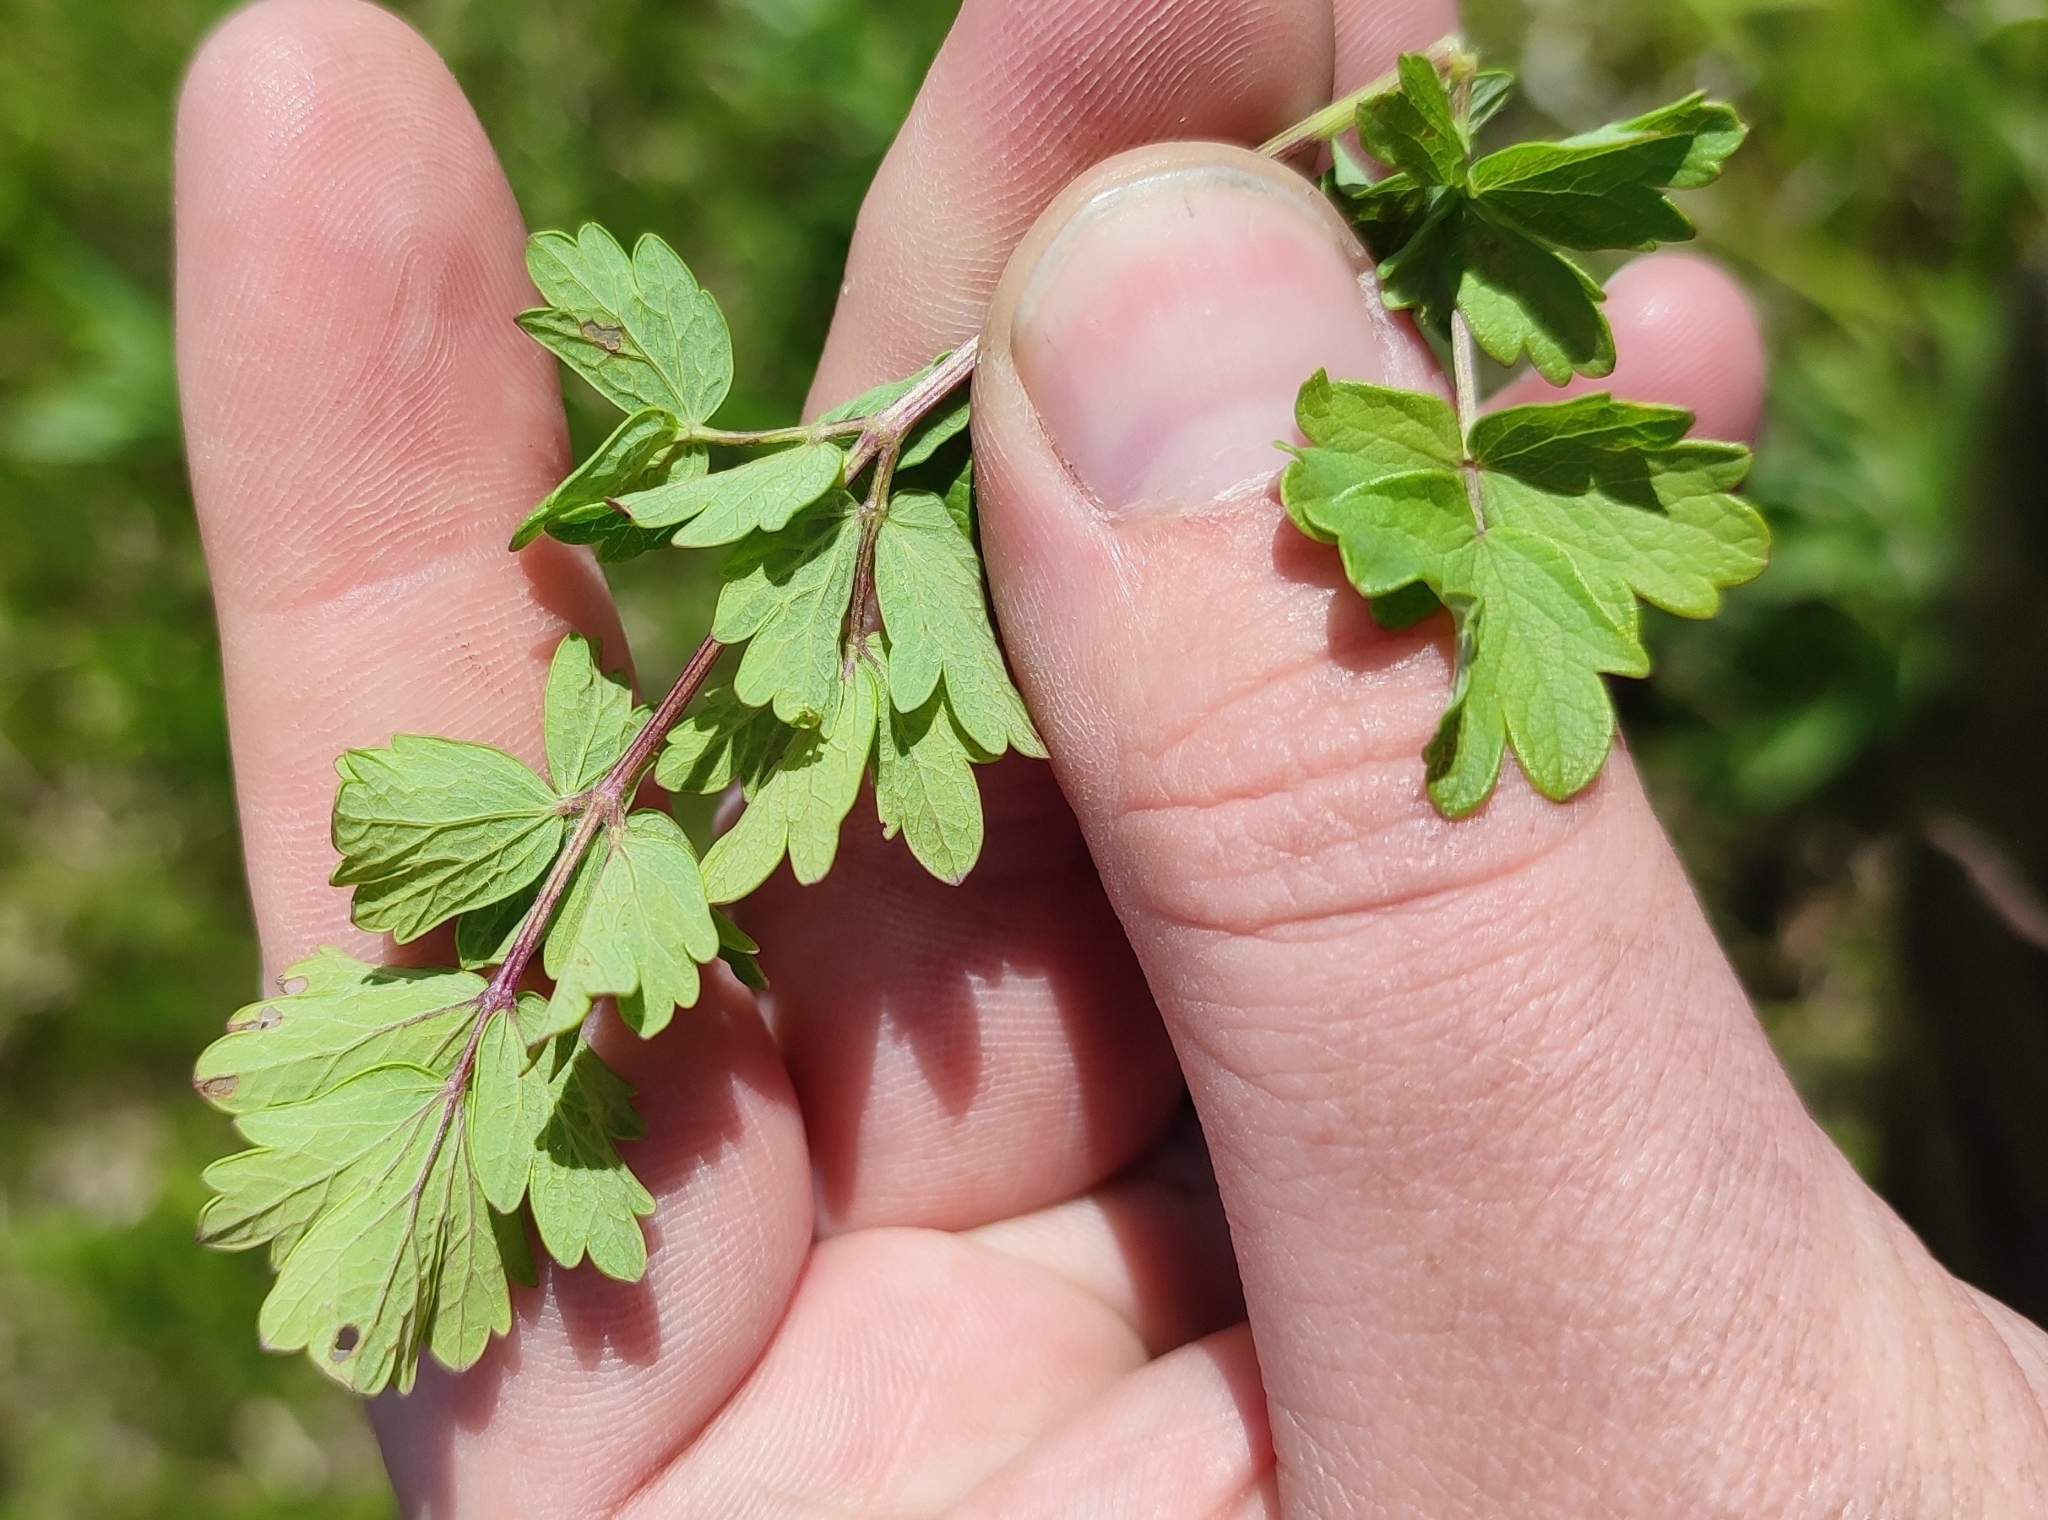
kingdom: Plantae
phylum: Tracheophyta
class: Magnoliopsida
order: Ranunculales
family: Ranunculaceae
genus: Thalictrum
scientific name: Thalictrum simplex
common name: Small meadow-rue
